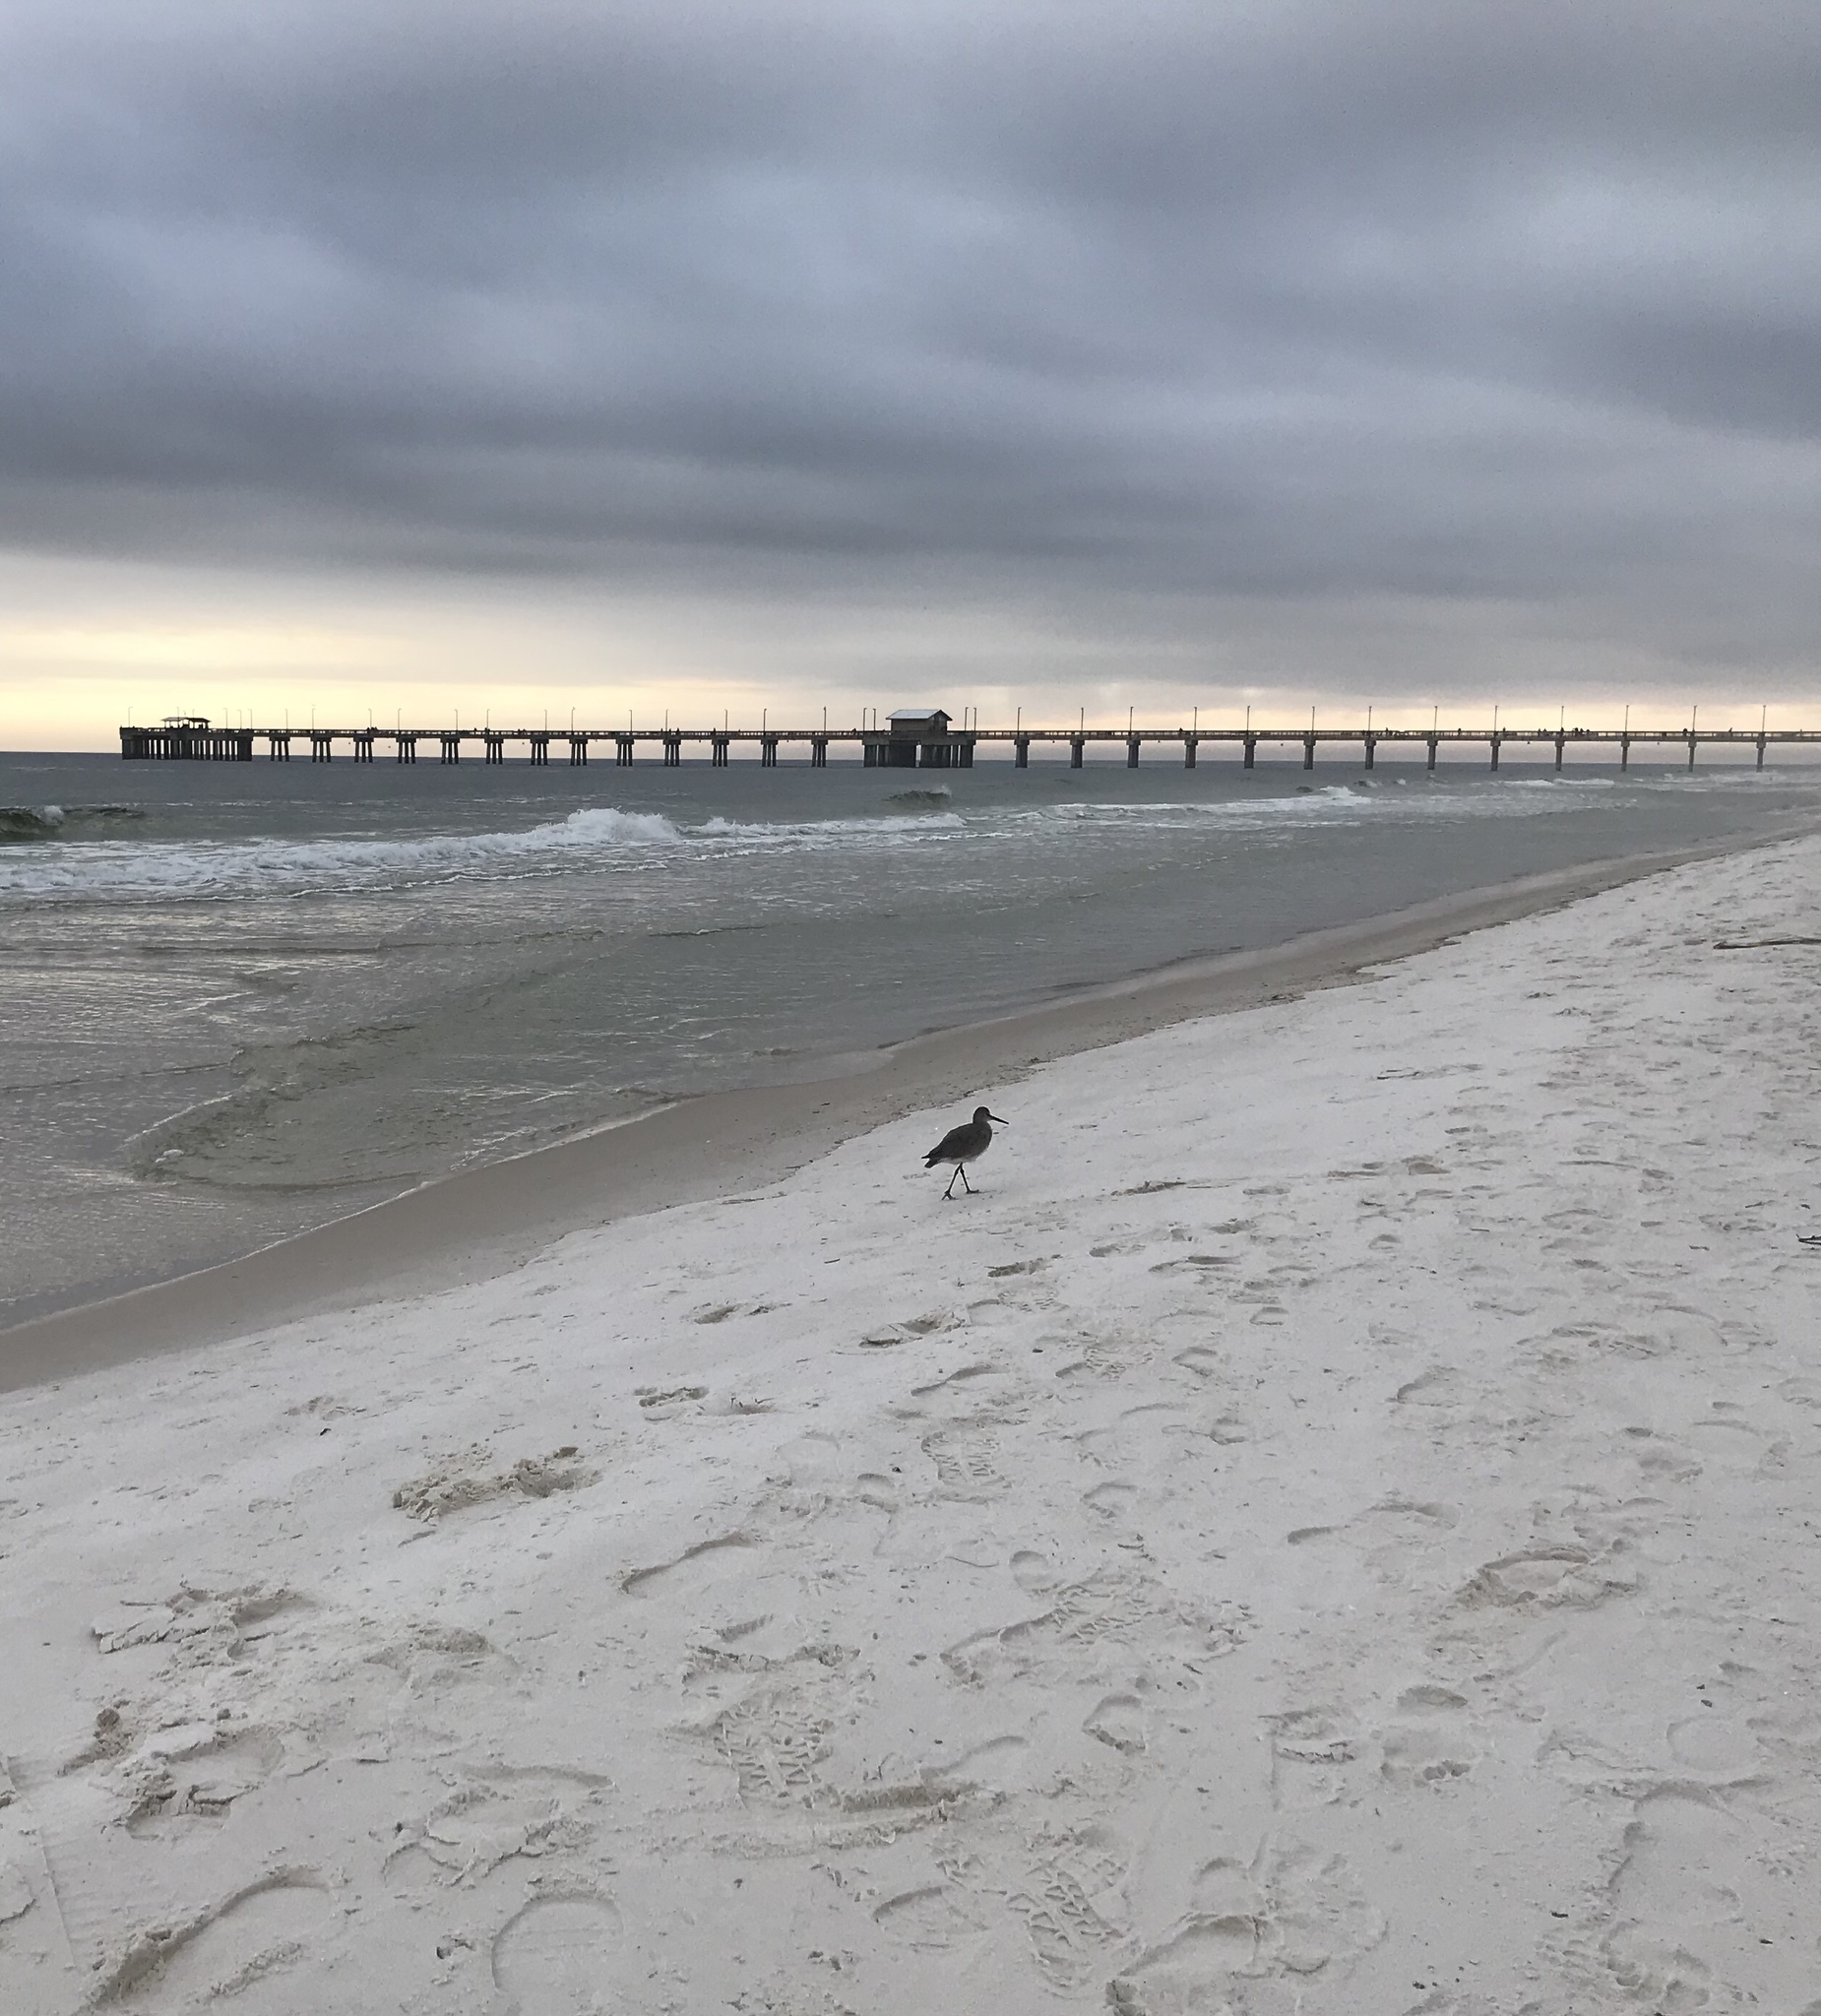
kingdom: Animalia
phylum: Chordata
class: Aves
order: Charadriiformes
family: Scolopacidae
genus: Tringa
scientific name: Tringa semipalmata
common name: Willet
